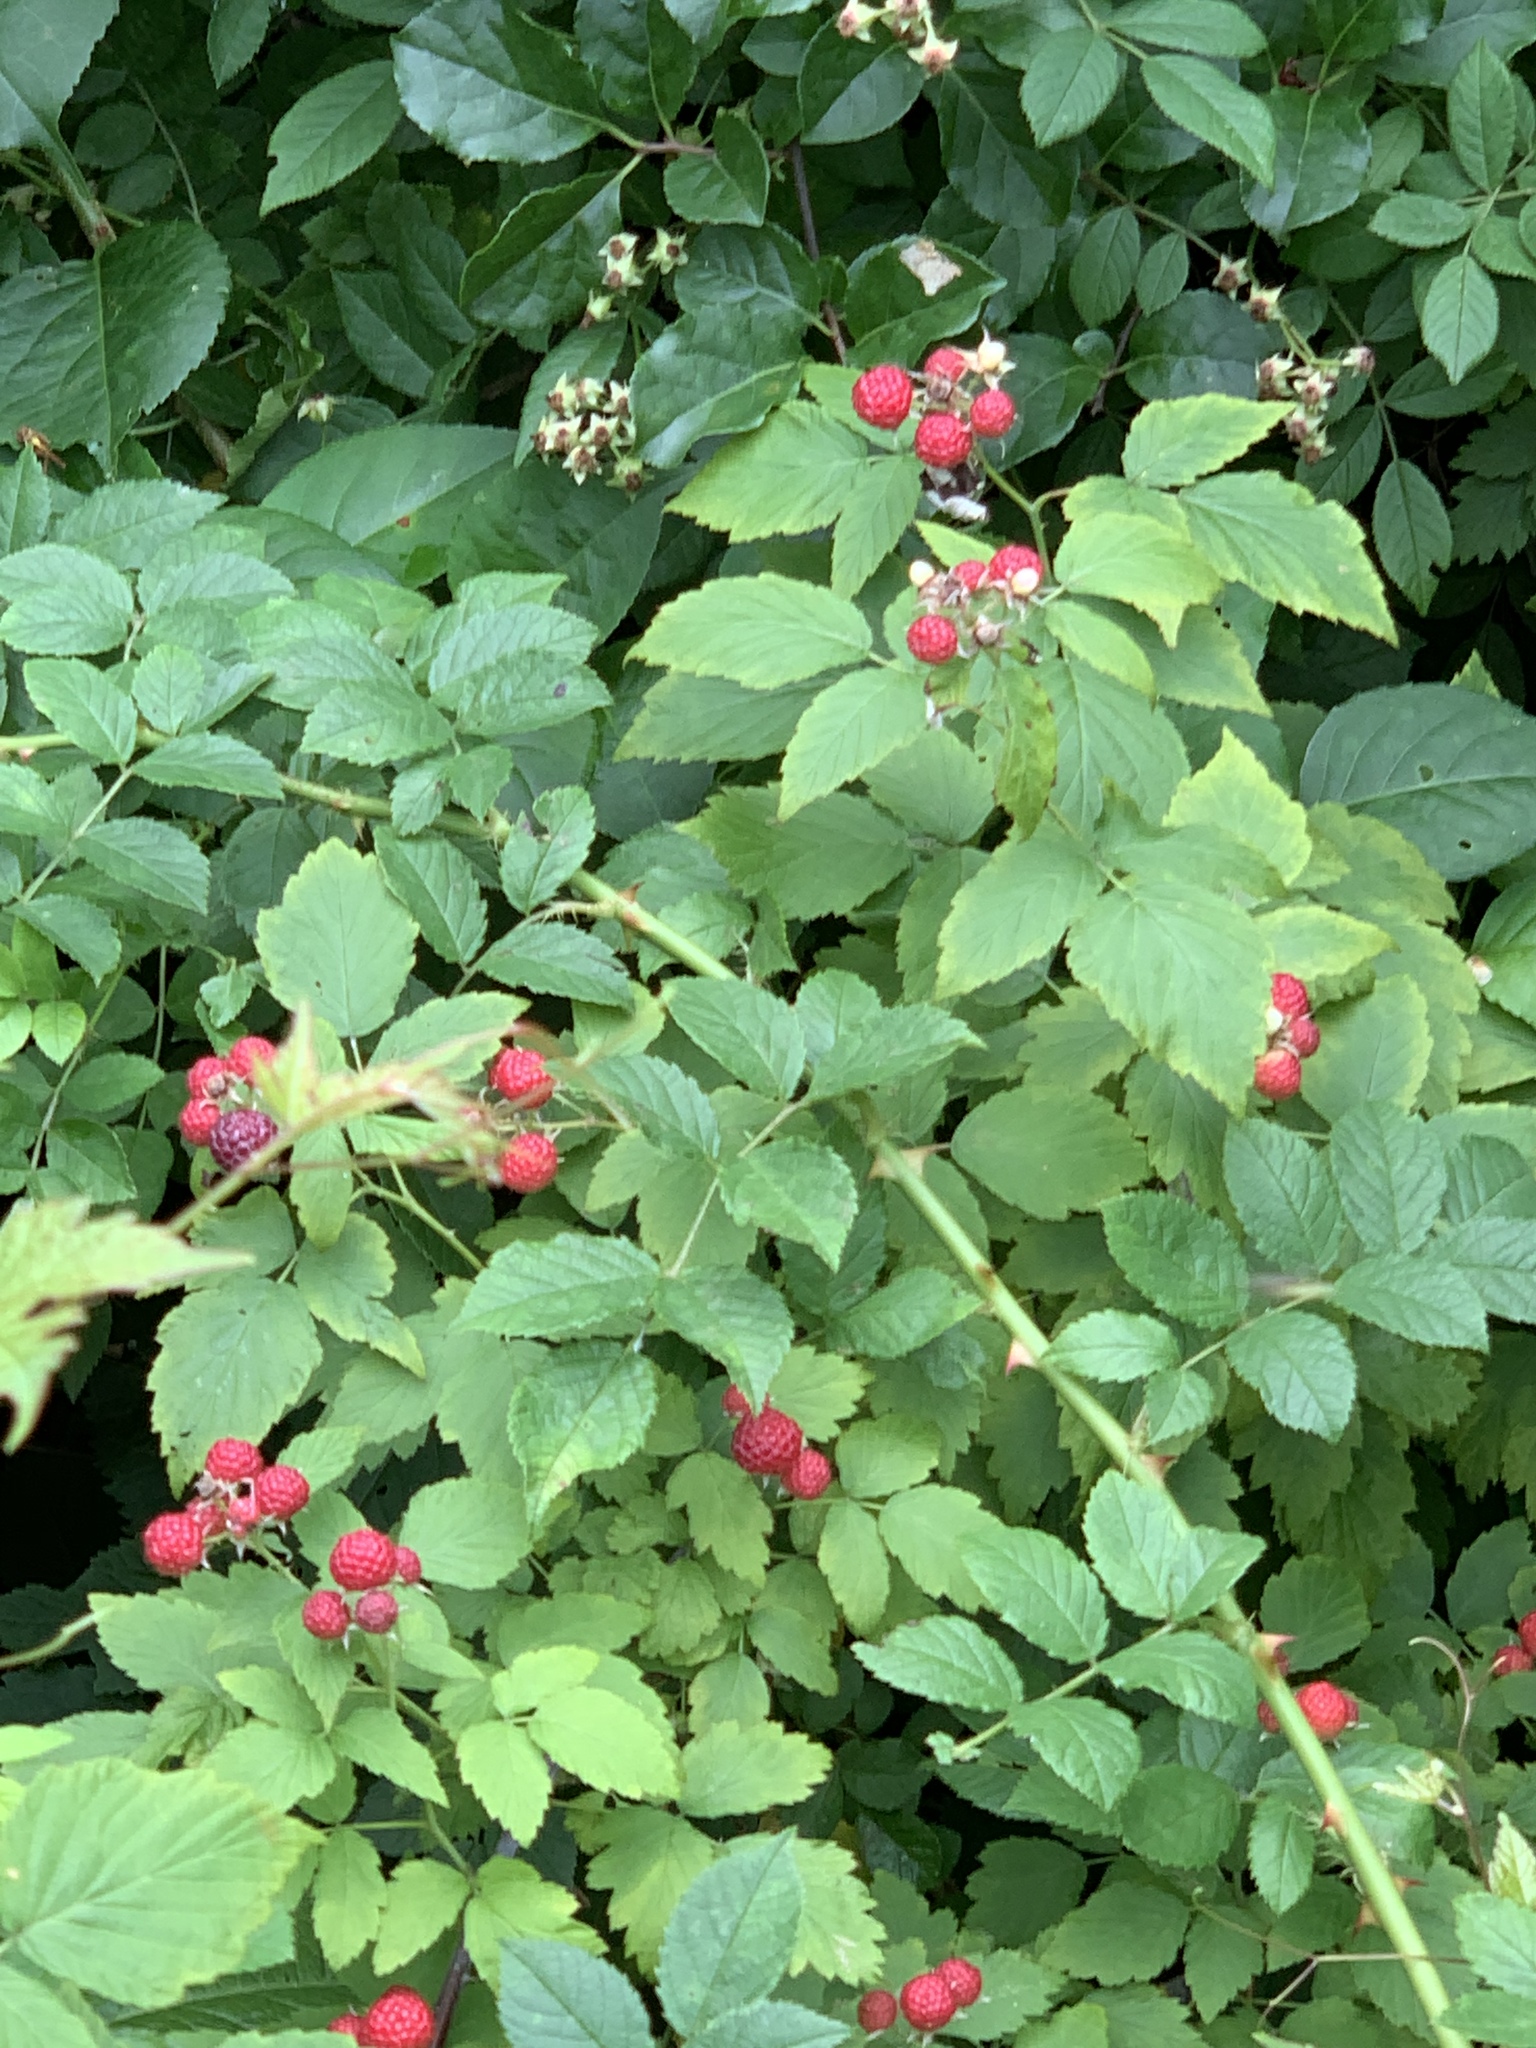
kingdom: Plantae
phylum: Tracheophyta
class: Magnoliopsida
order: Rosales
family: Rosaceae
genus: Rubus
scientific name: Rubus occidentalis
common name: Black raspberry
